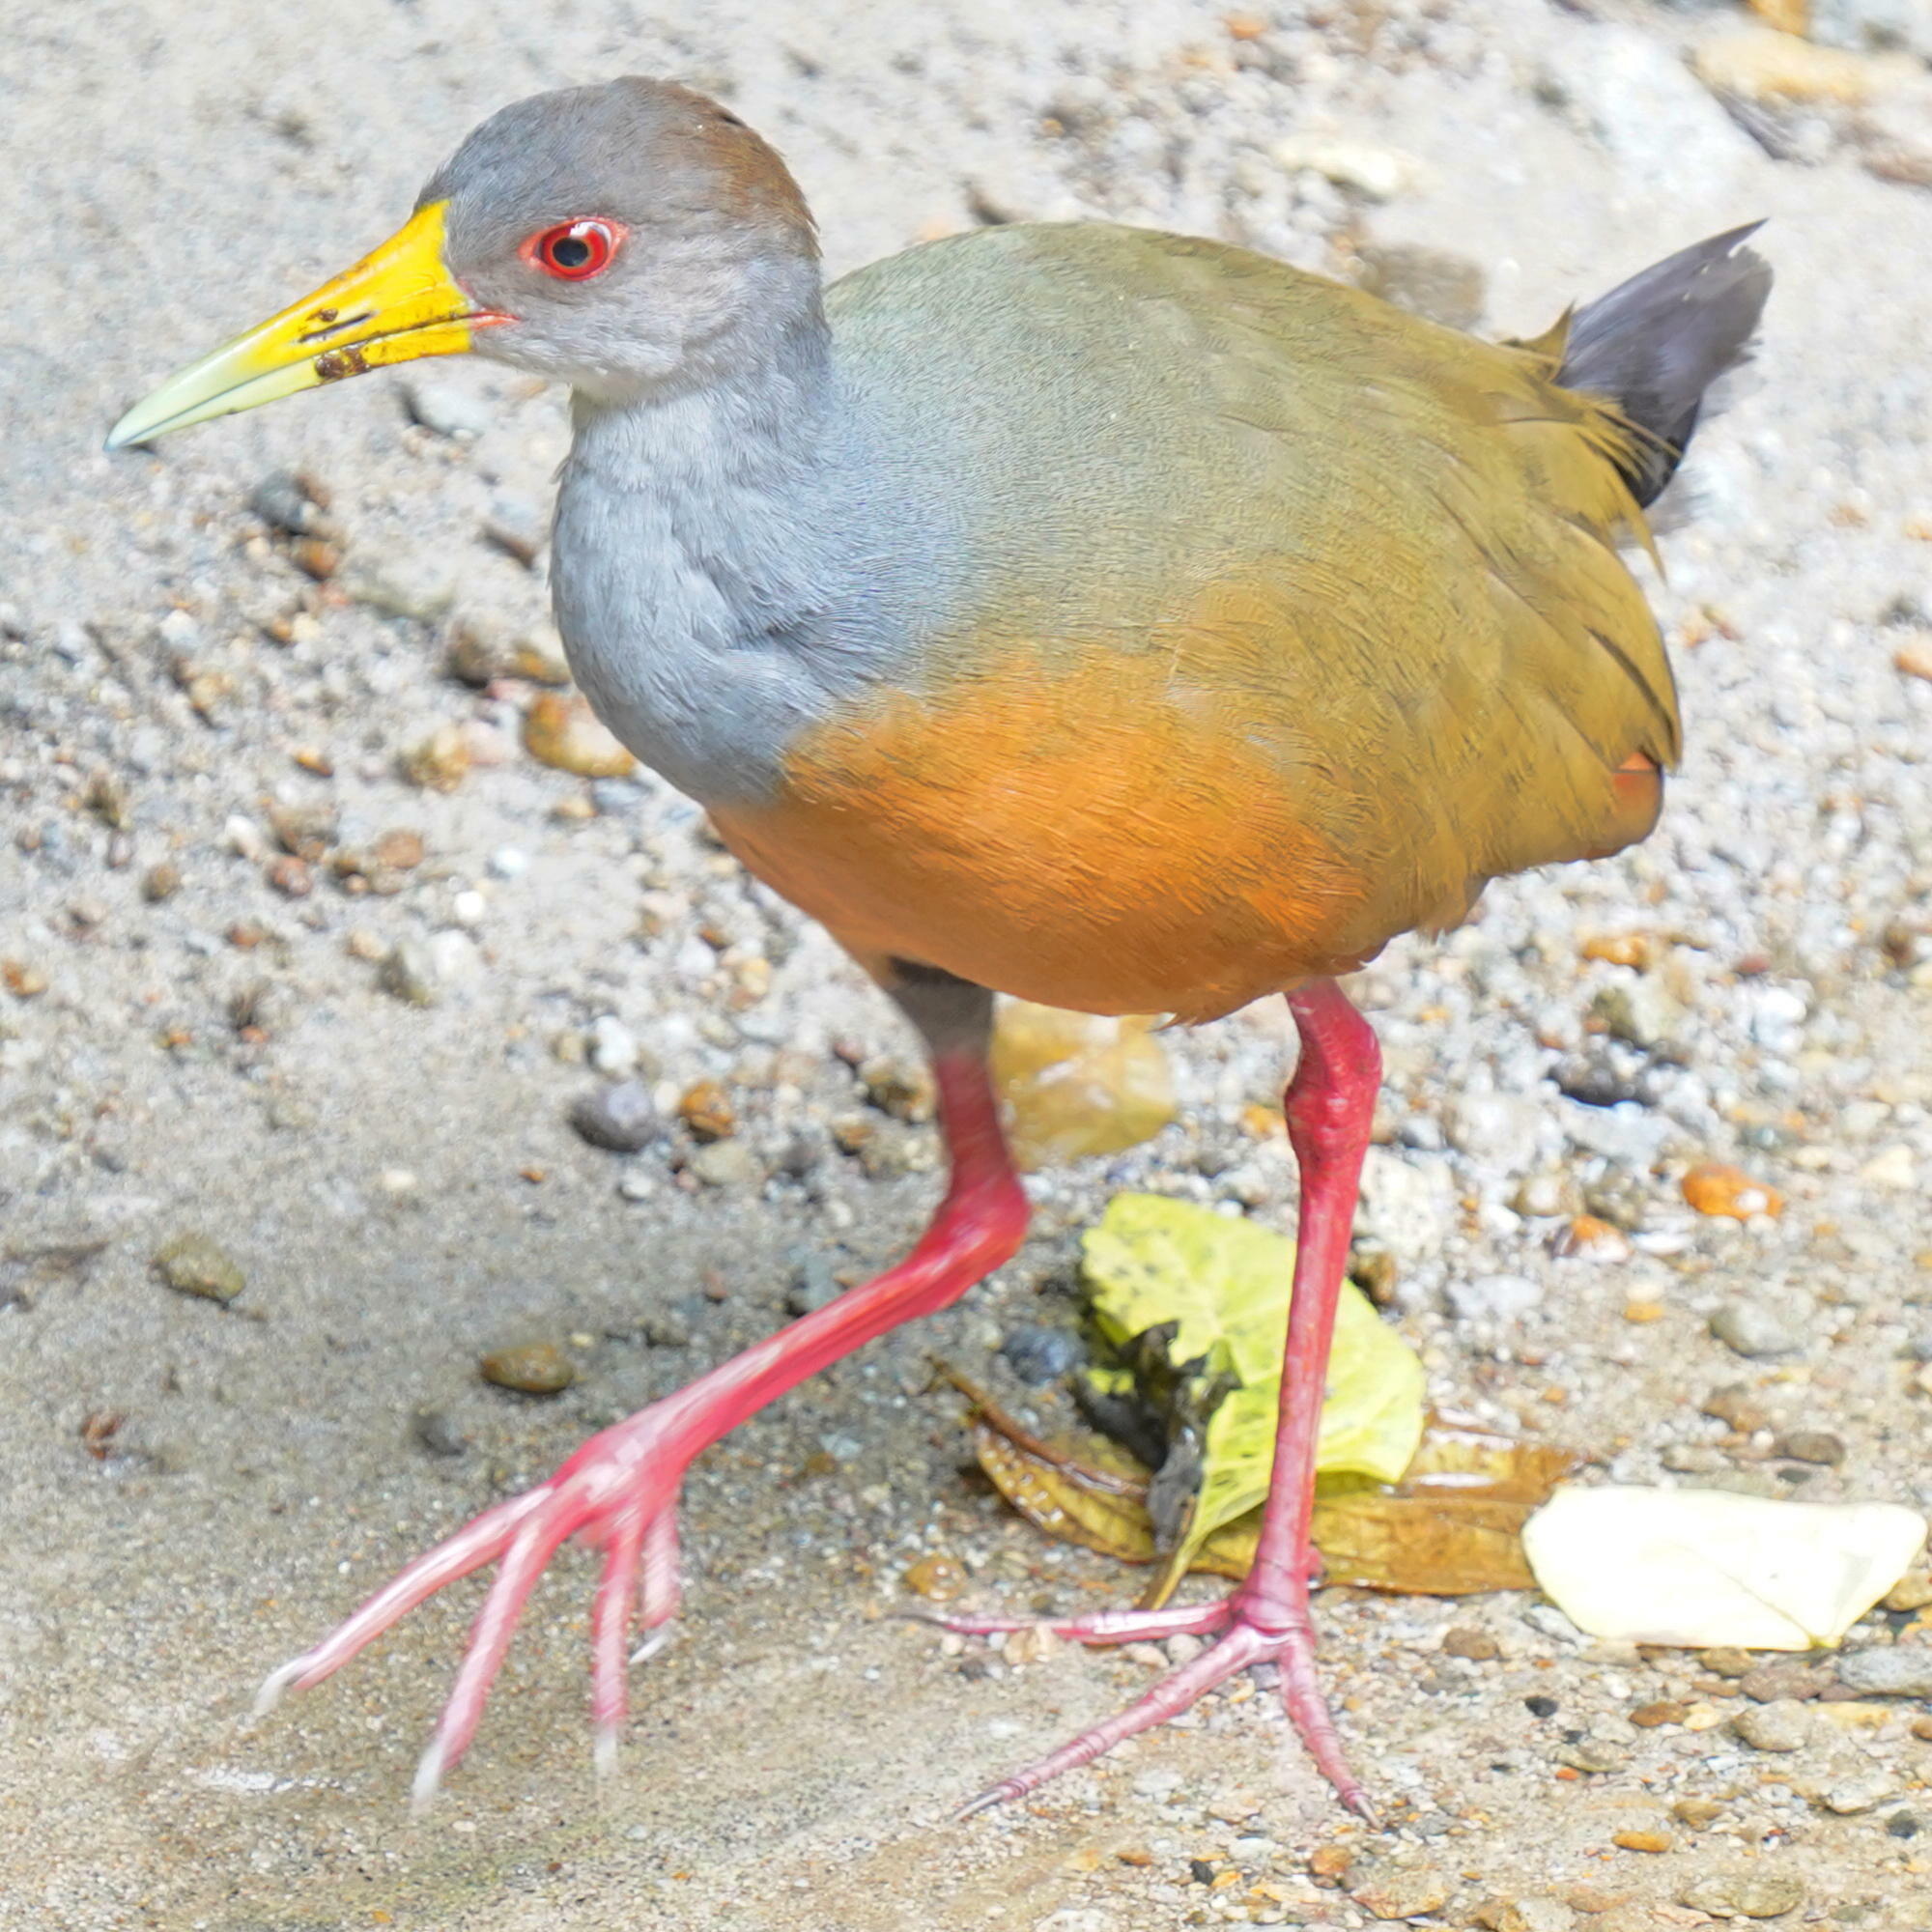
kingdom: Animalia
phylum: Chordata
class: Aves
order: Gruiformes
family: Rallidae
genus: Aramides
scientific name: Aramides cajanea
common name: Gray-necked wood-rail
